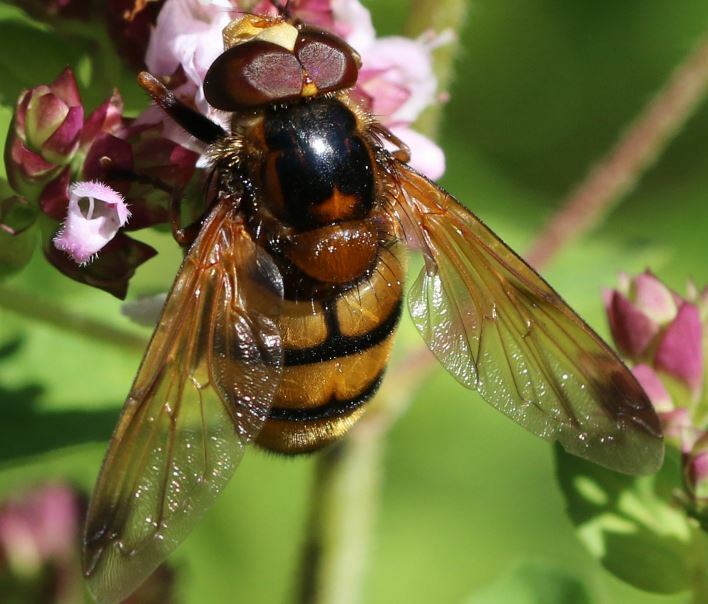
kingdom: Animalia
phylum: Arthropoda
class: Insecta
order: Diptera
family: Syrphidae
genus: Volucella
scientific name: Volucella inanis
